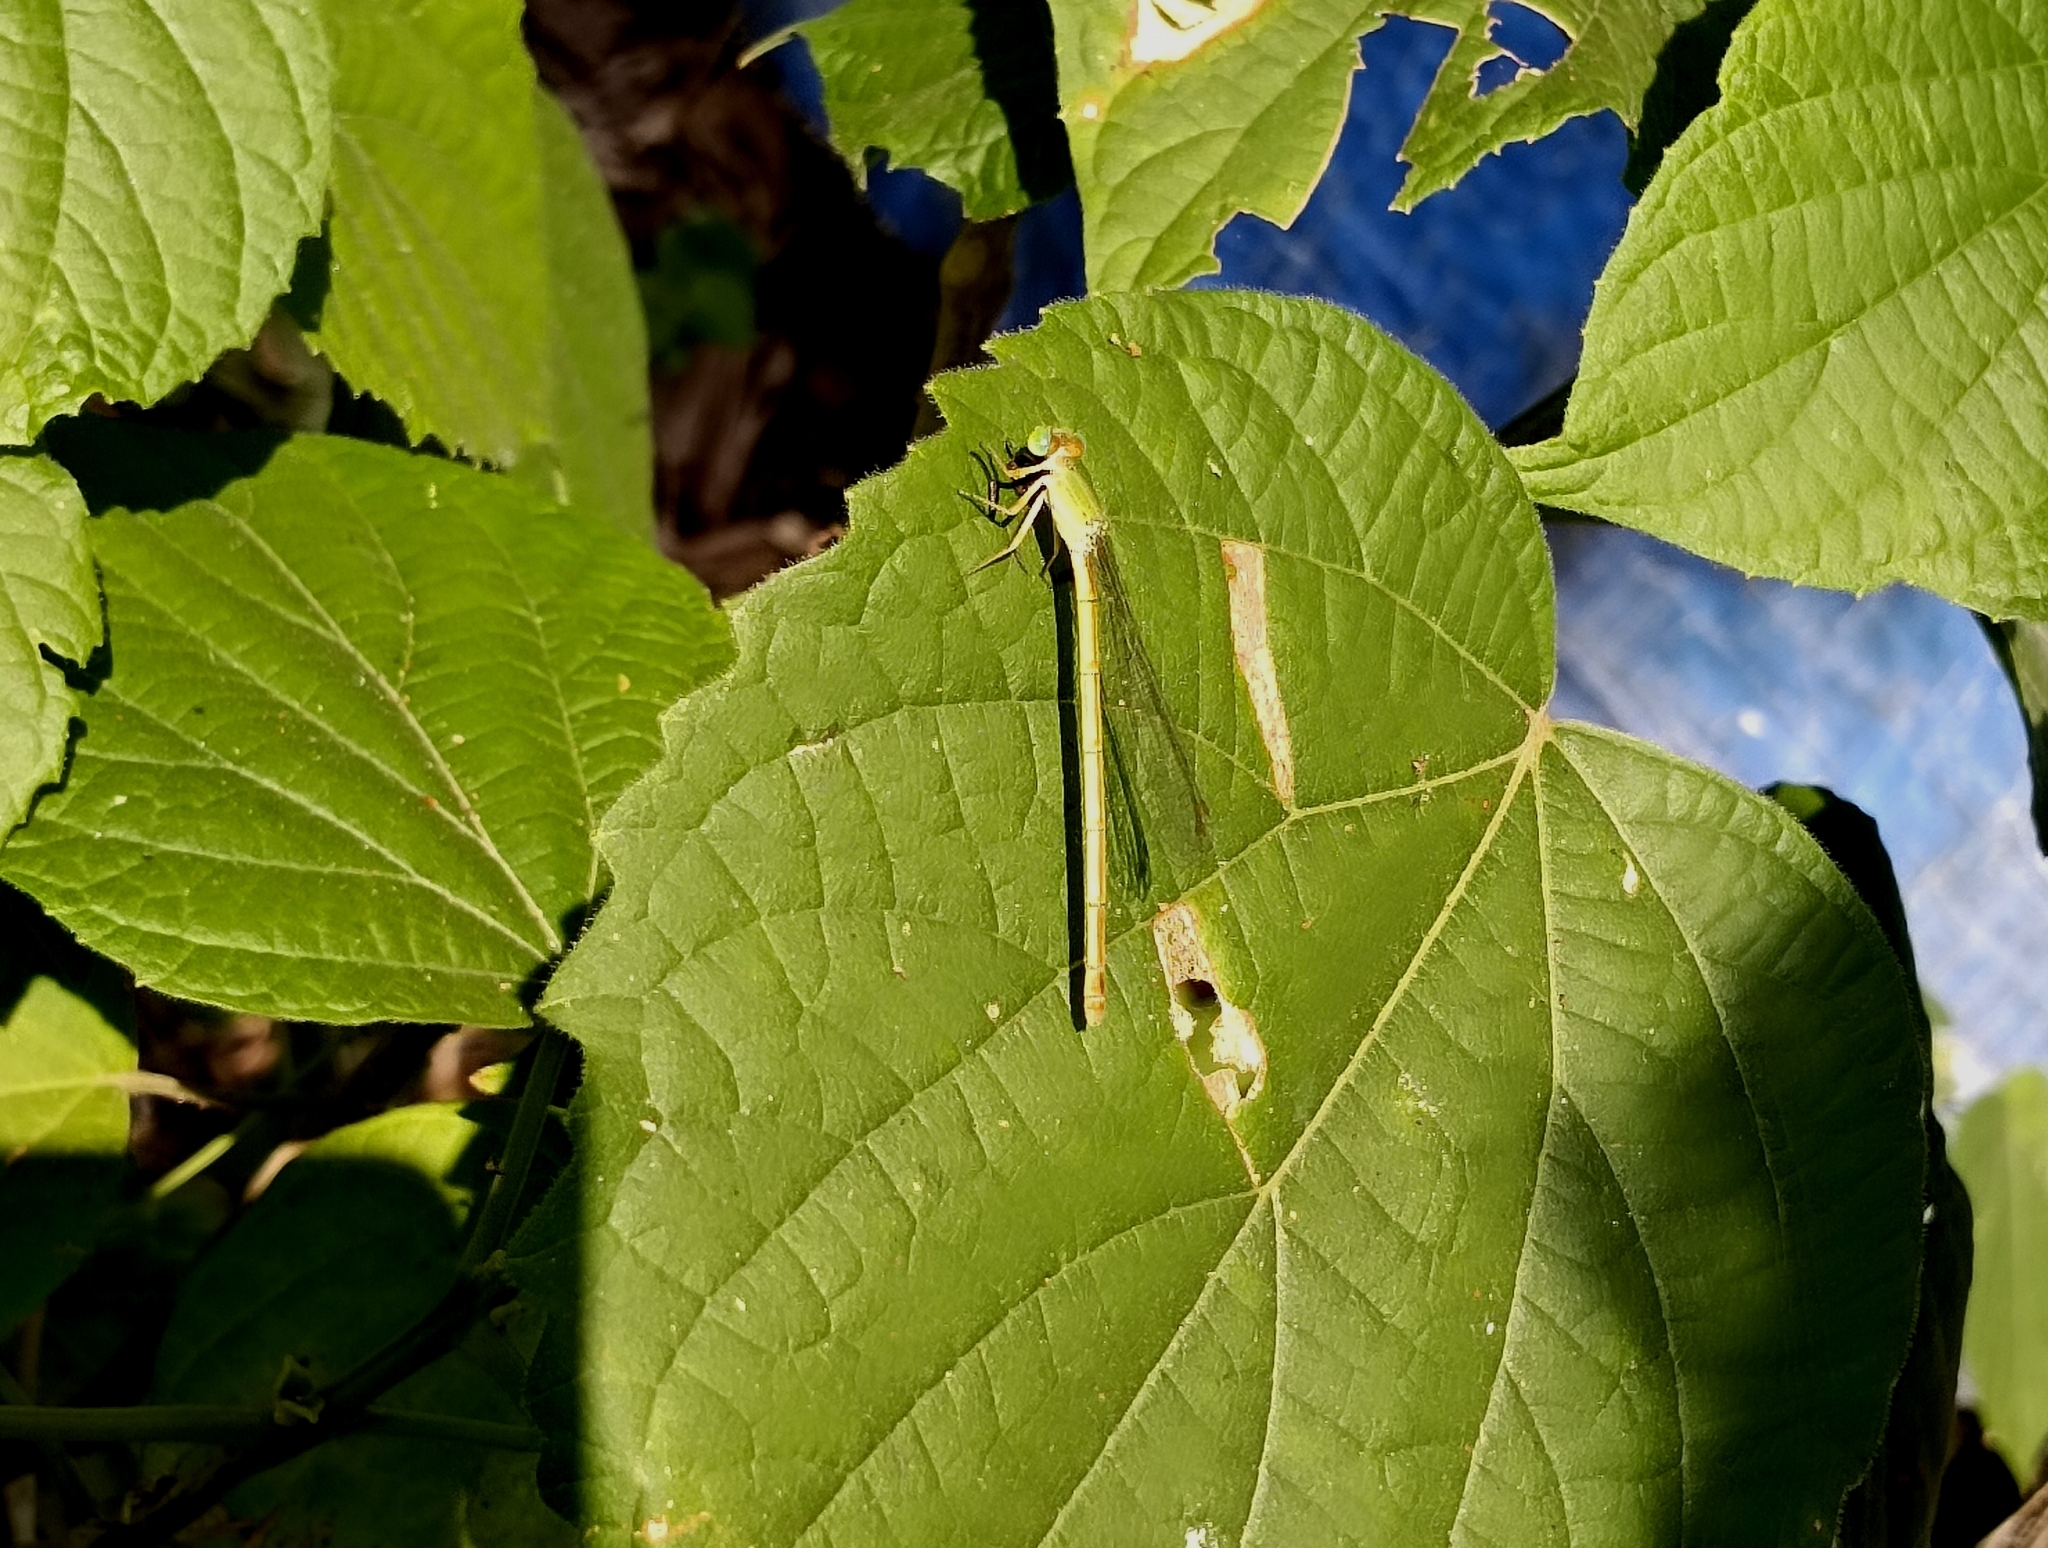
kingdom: Animalia
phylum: Arthropoda
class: Insecta
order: Odonata
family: Coenagrionidae
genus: Ceriagrion
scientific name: Ceriagrion coromandelianum
